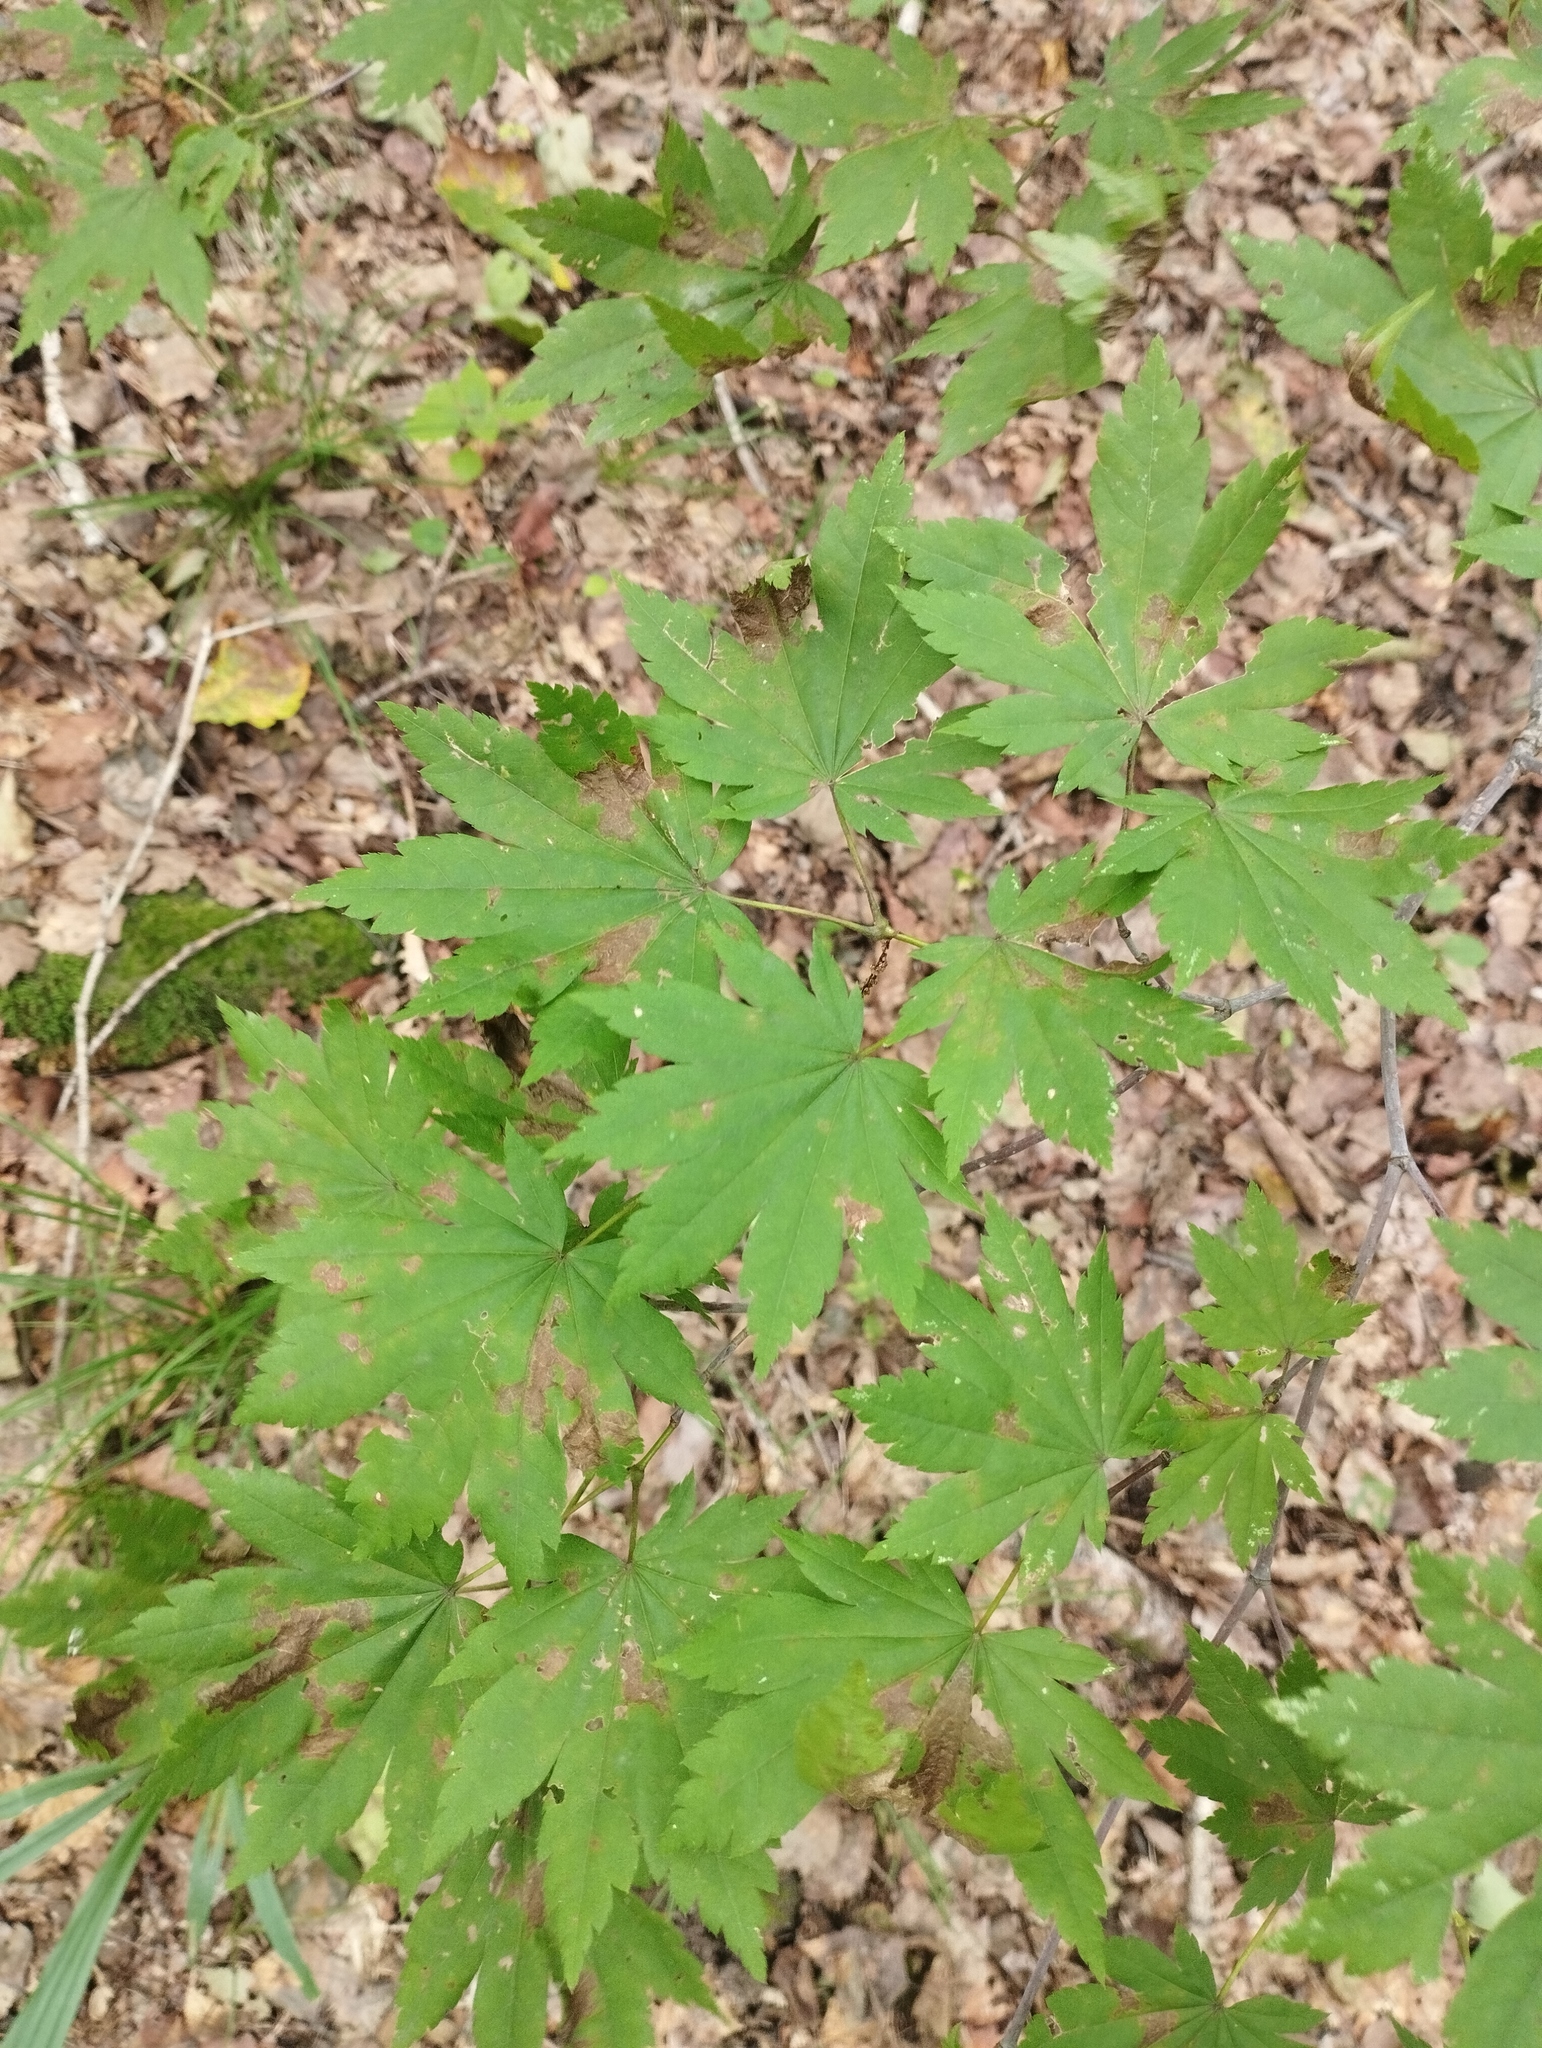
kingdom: Plantae
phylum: Tracheophyta
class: Magnoliopsida
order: Sapindales
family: Sapindaceae
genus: Acer
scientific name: Acer pseudosieboldianum
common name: Korean maple
